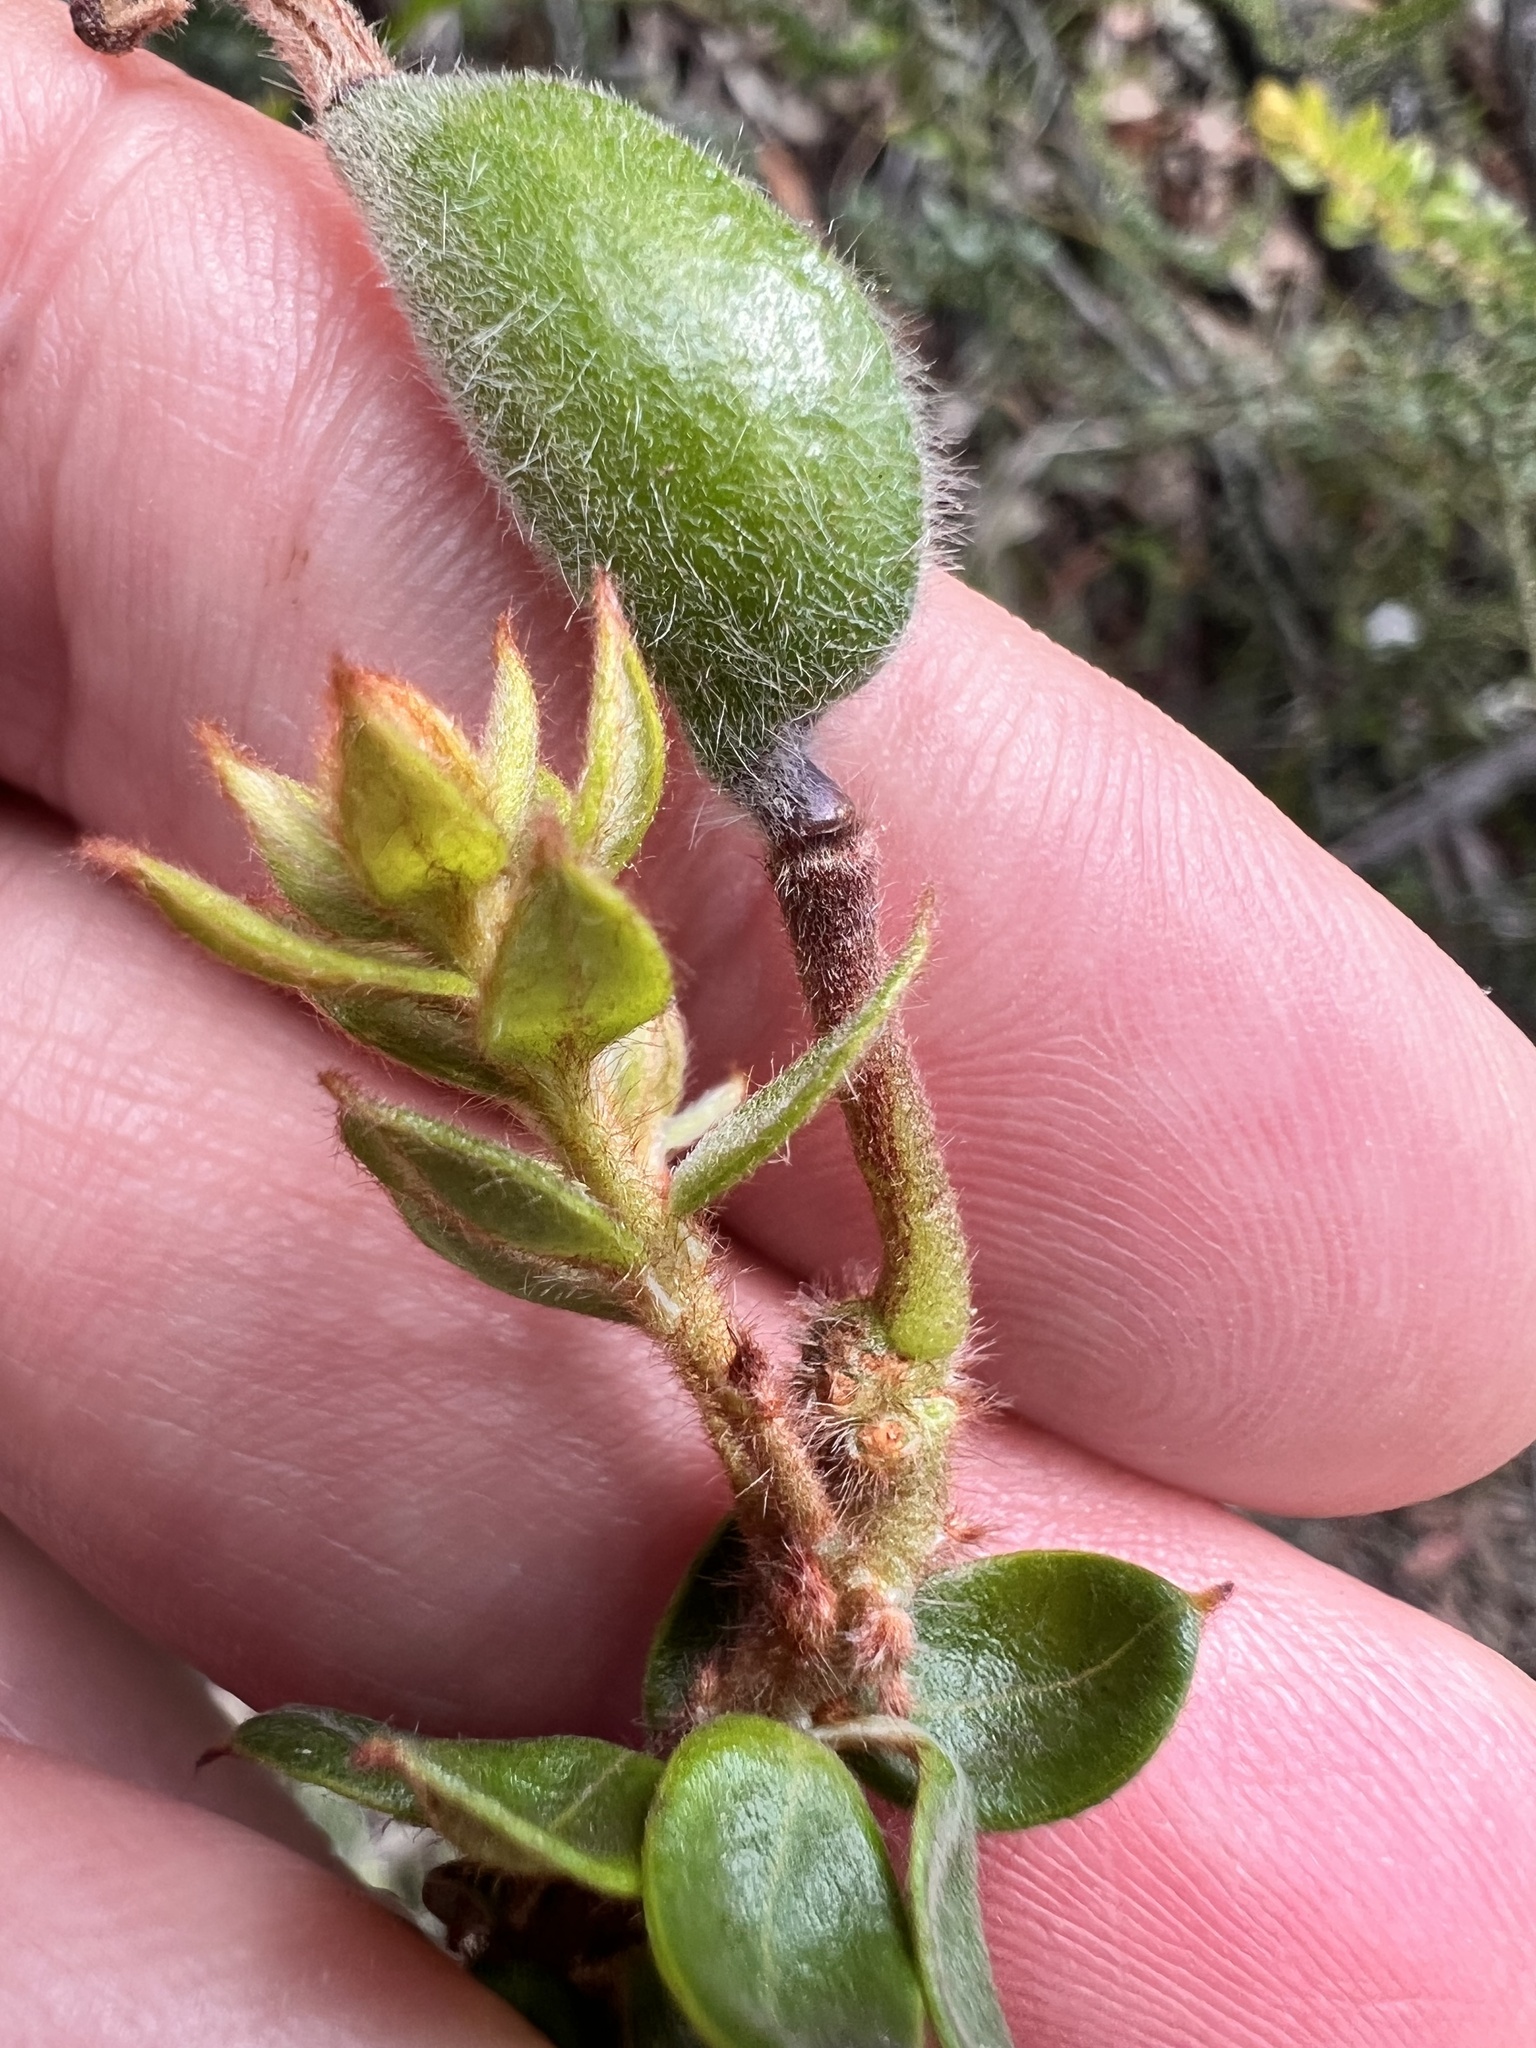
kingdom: Plantae
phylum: Tracheophyta
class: Magnoliopsida
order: Proteales
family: Proteaceae
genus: Grevillea
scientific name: Grevillea buxifolia
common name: Grey spiderflower
